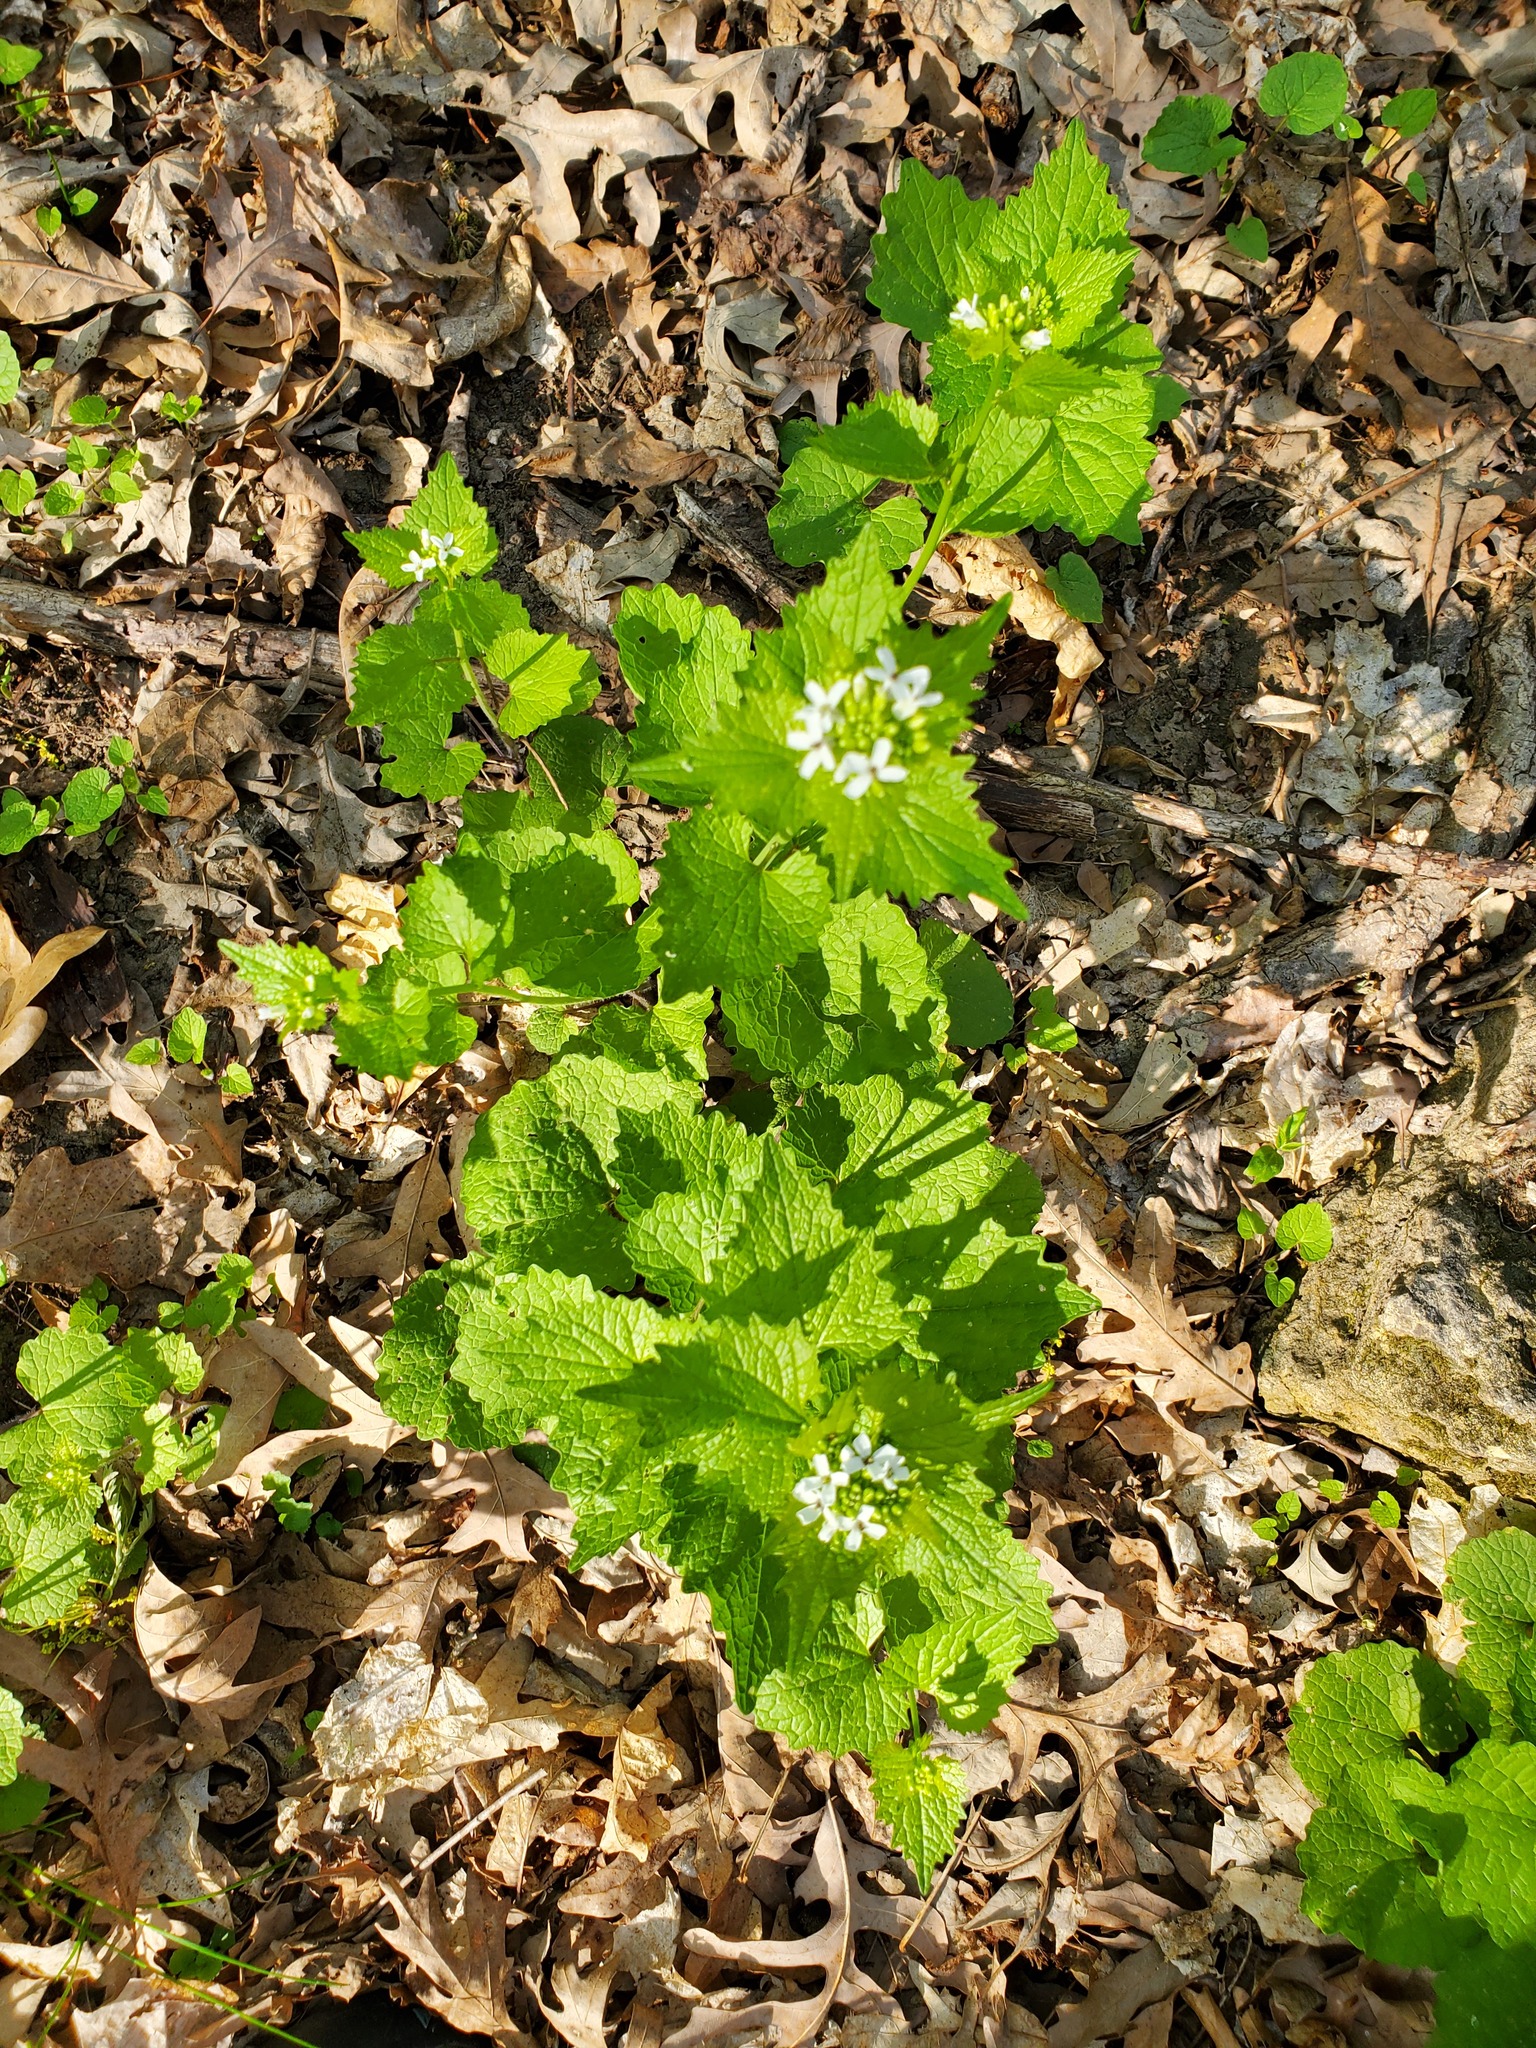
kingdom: Plantae
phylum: Tracheophyta
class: Magnoliopsida
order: Brassicales
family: Brassicaceae
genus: Alliaria
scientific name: Alliaria petiolata
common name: Garlic mustard
